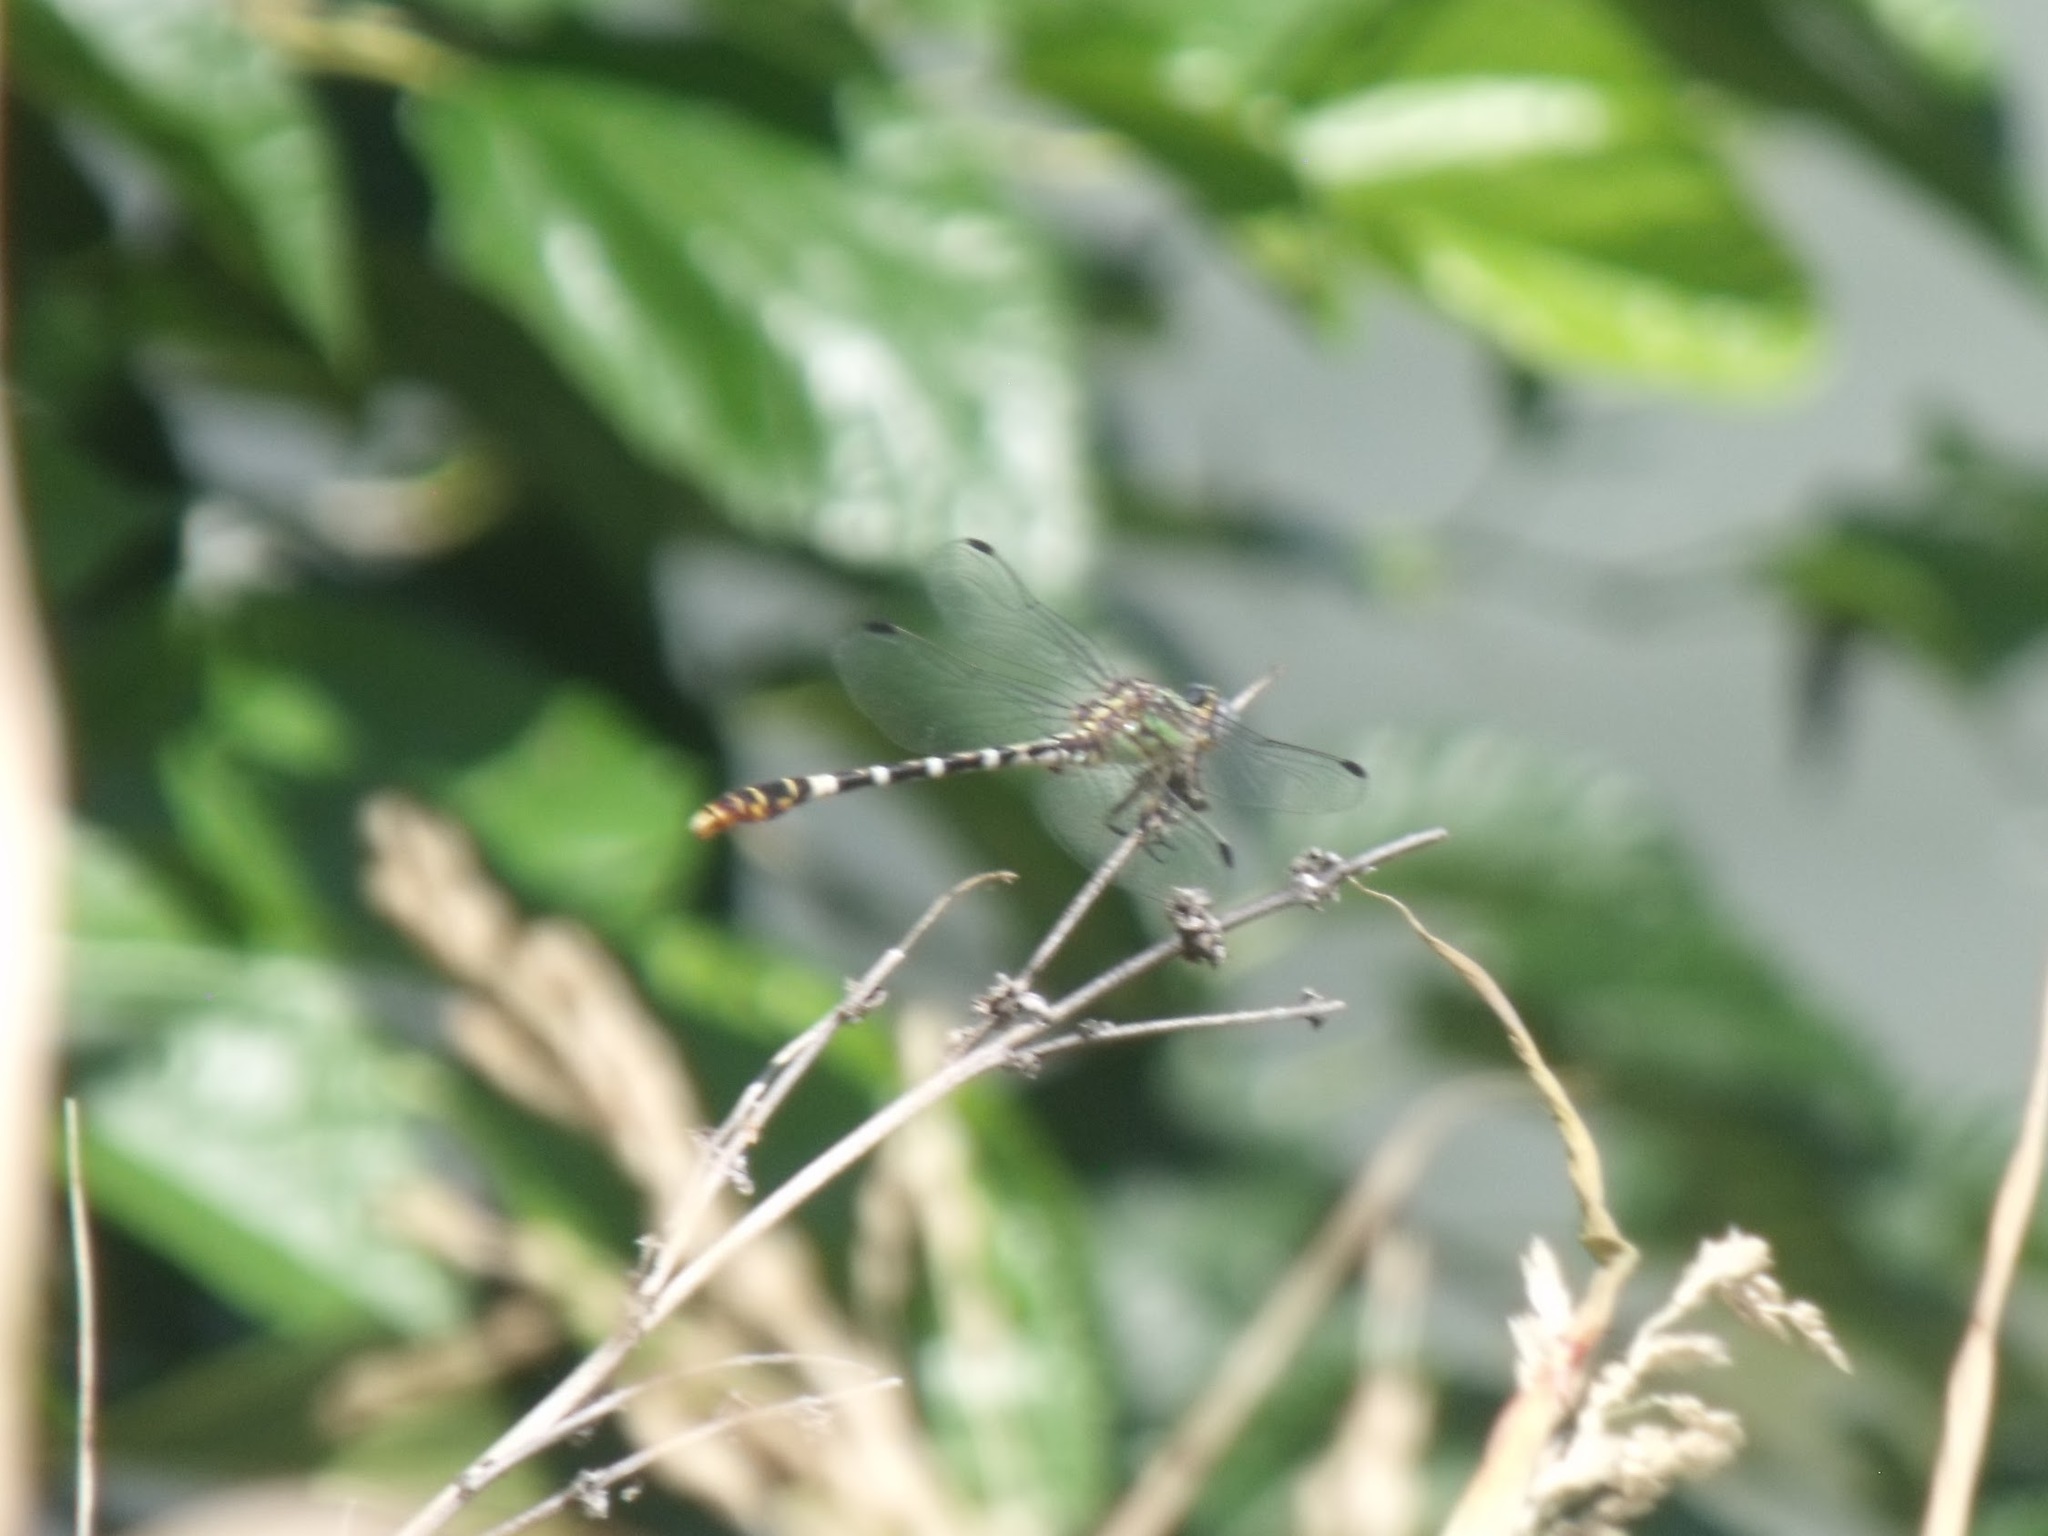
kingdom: Animalia
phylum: Arthropoda
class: Insecta
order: Odonata
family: Gomphidae
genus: Erpetogomphus
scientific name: Erpetogomphus lampropeltis
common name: Serpent ringtail
